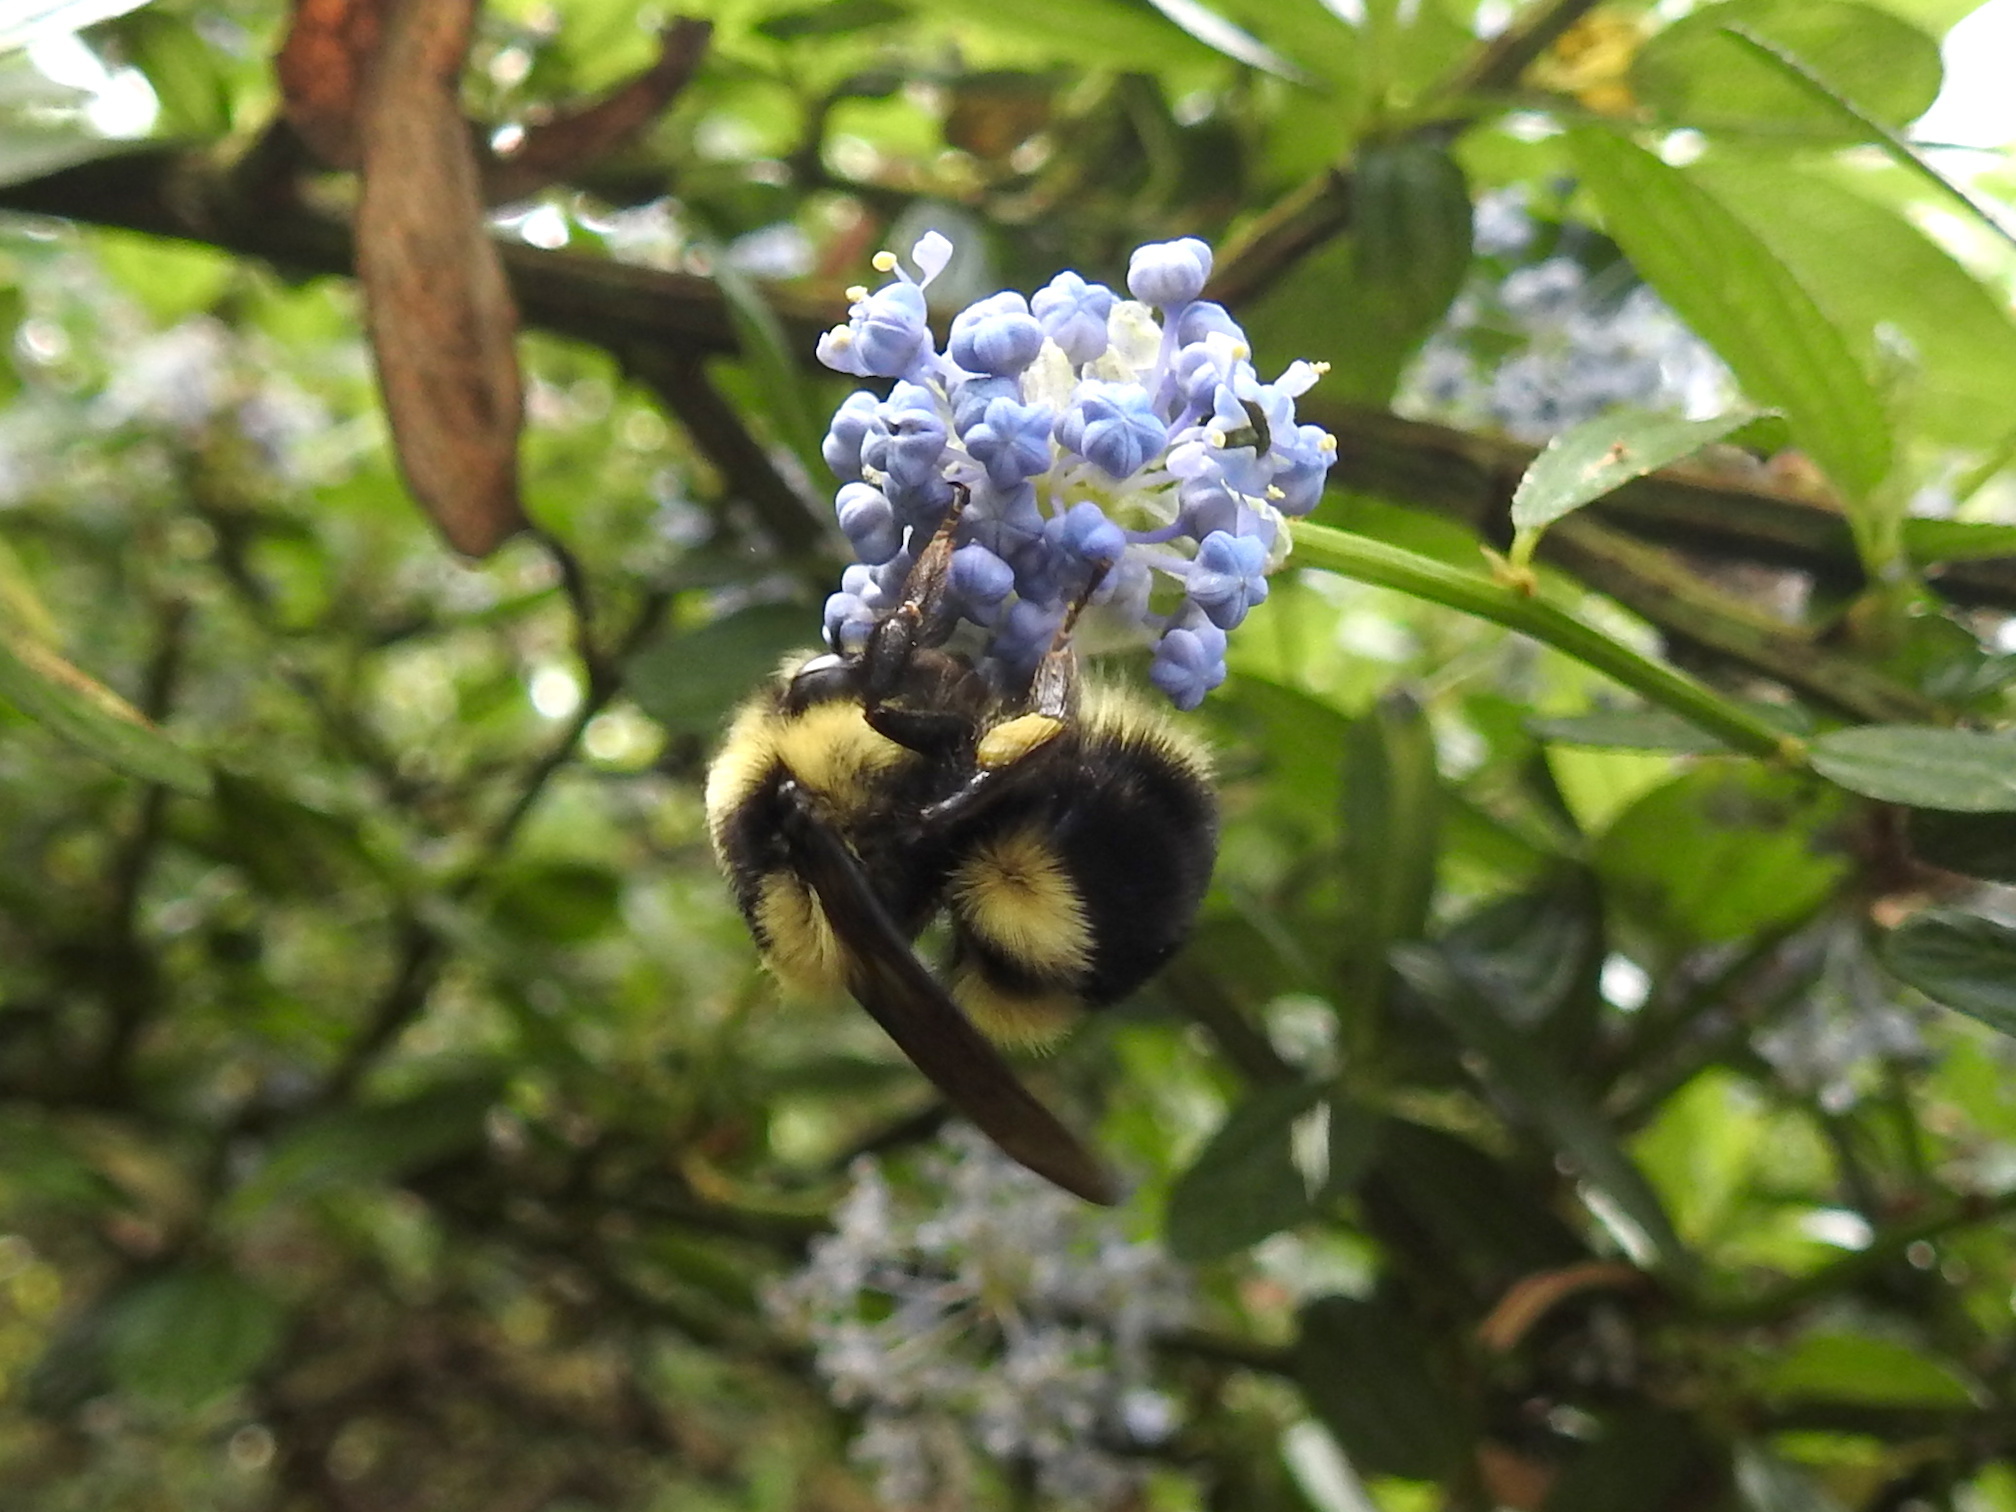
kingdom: Animalia
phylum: Arthropoda
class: Insecta
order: Hymenoptera
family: Apidae
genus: Bombus
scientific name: Bombus melanopygus
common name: Black tail bumble bee
